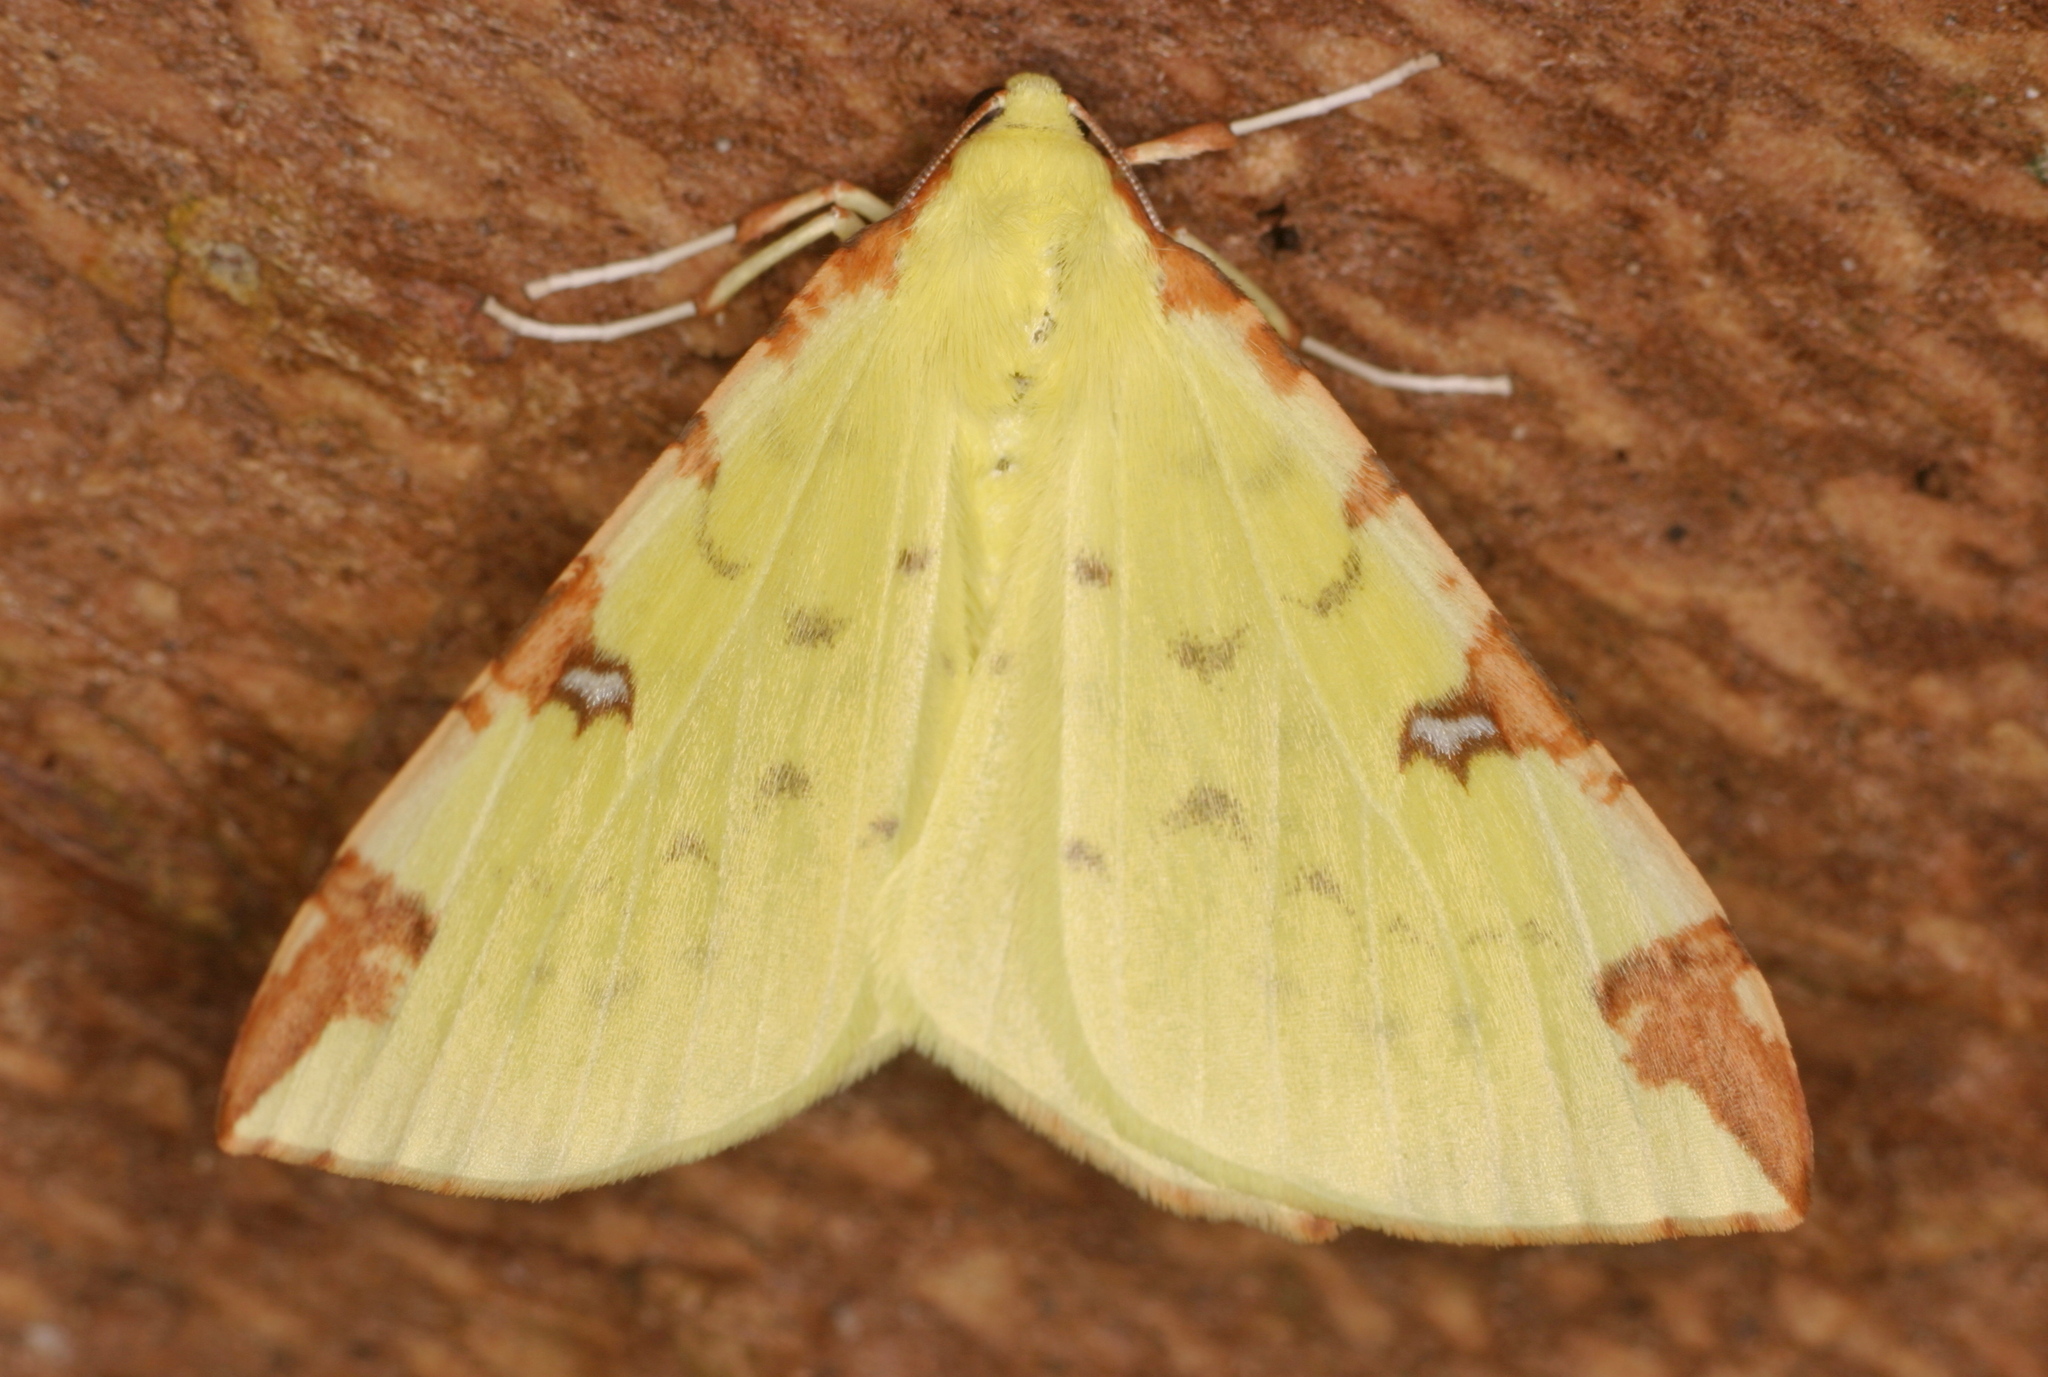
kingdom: Animalia
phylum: Arthropoda
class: Insecta
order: Lepidoptera
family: Geometridae
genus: Opisthograptis
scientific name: Opisthograptis luteolata
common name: Brimstone moth
